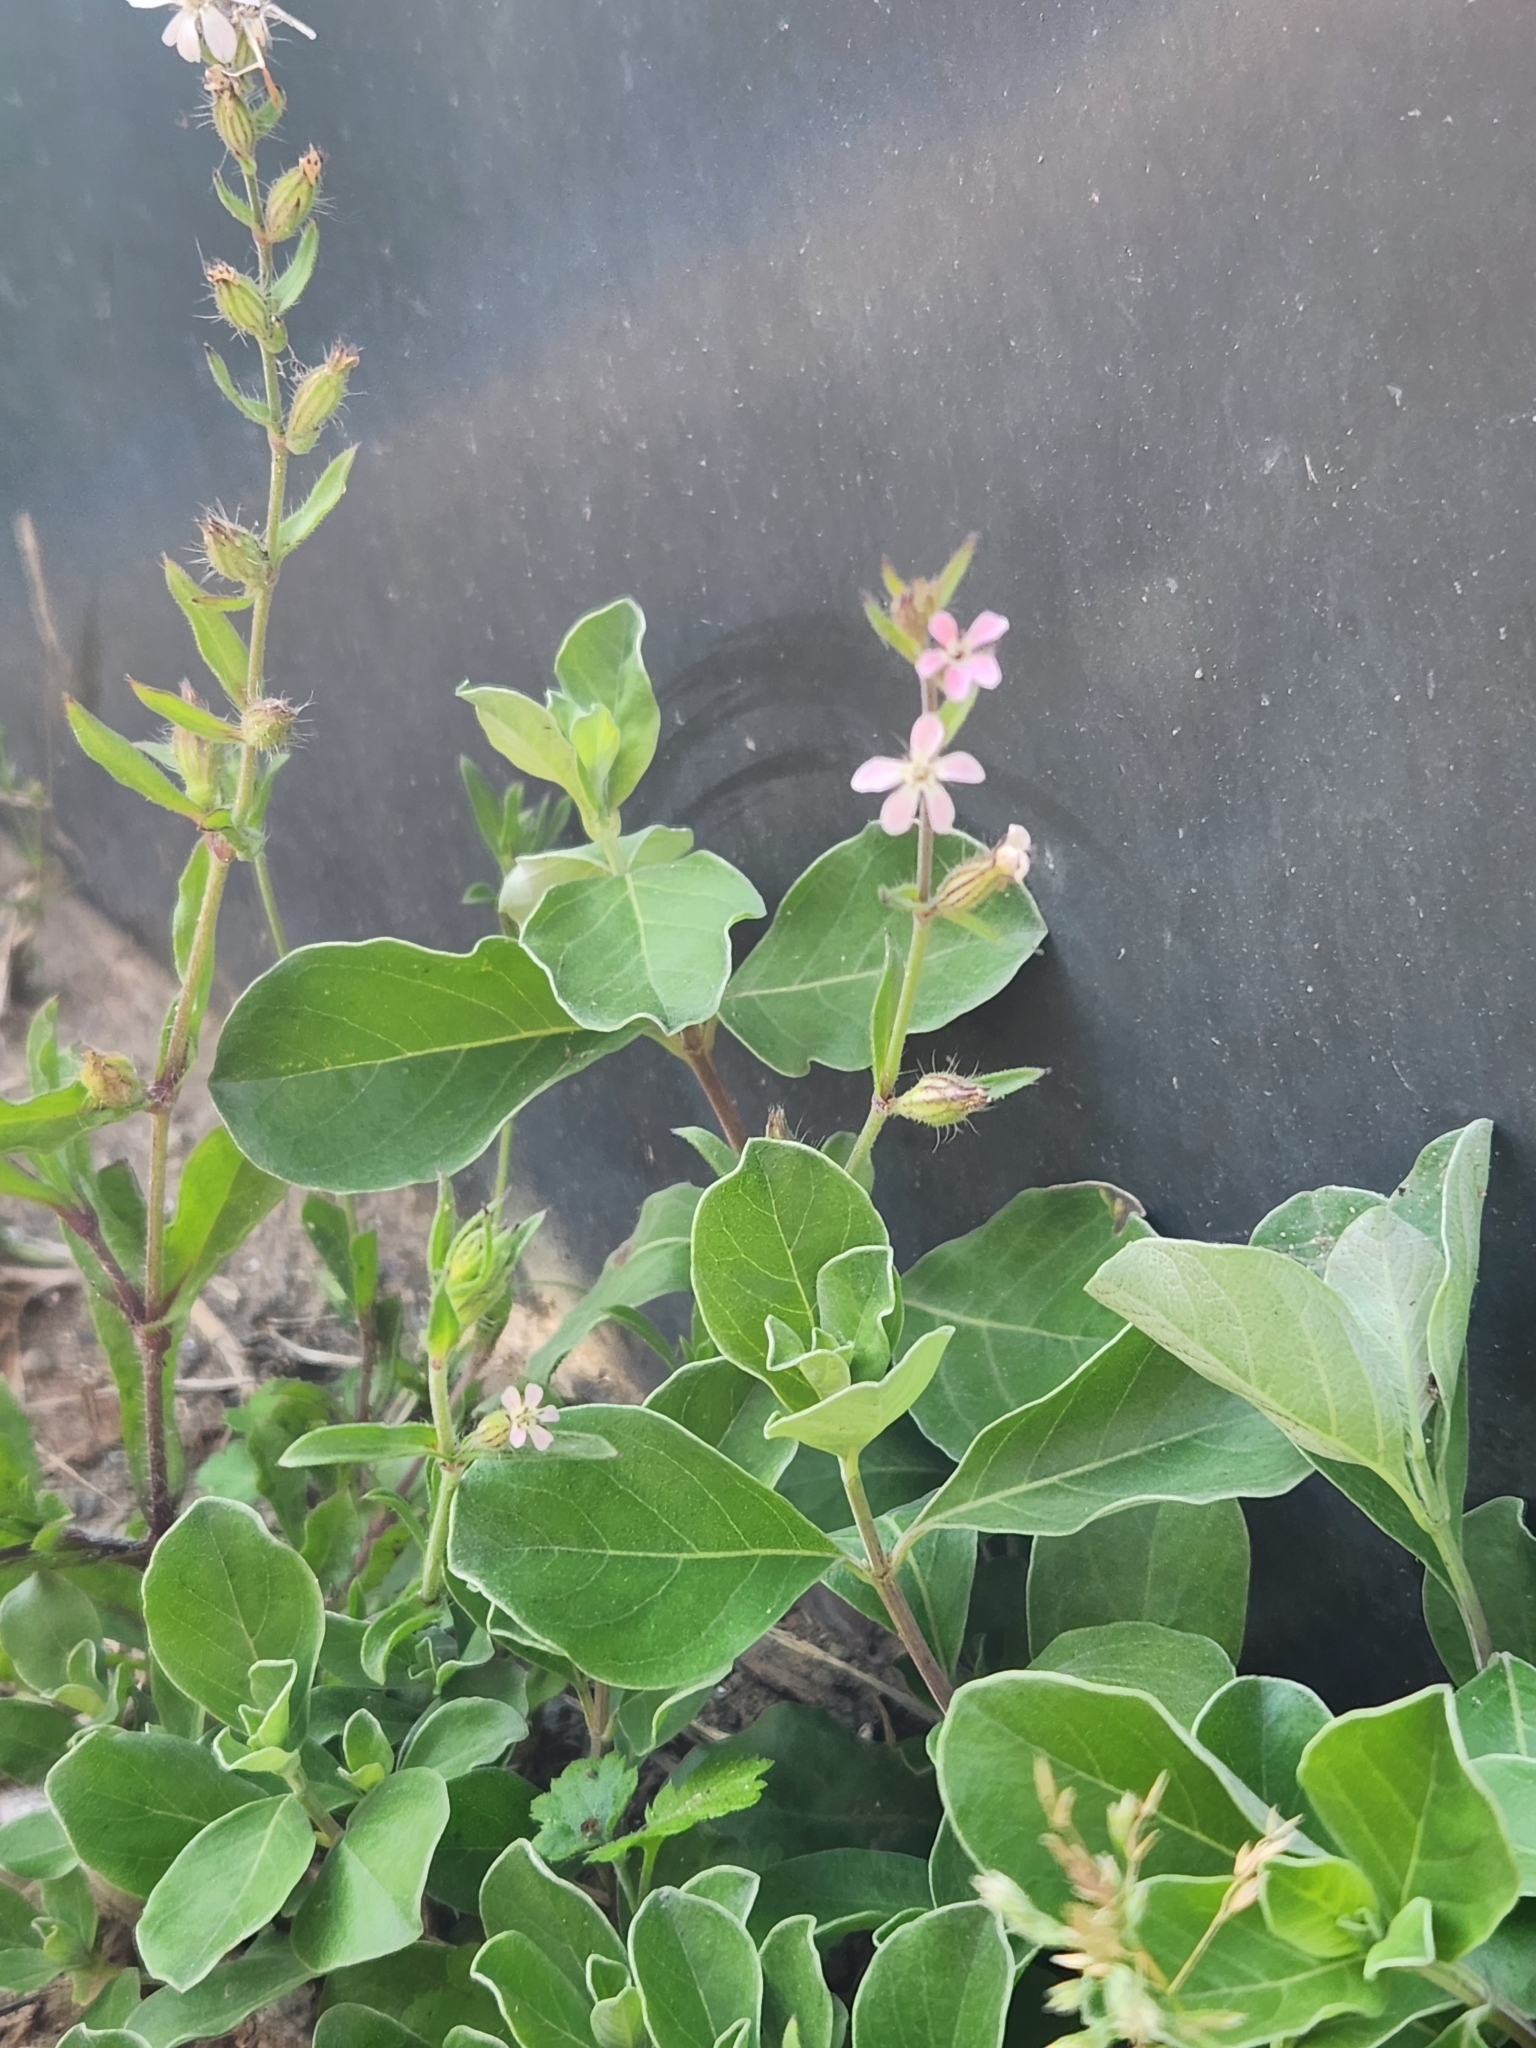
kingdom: Plantae
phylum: Tracheophyta
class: Magnoliopsida
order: Lamiales
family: Lamiaceae
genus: Vitex
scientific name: Vitex rotundifolia
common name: Beach vitex
